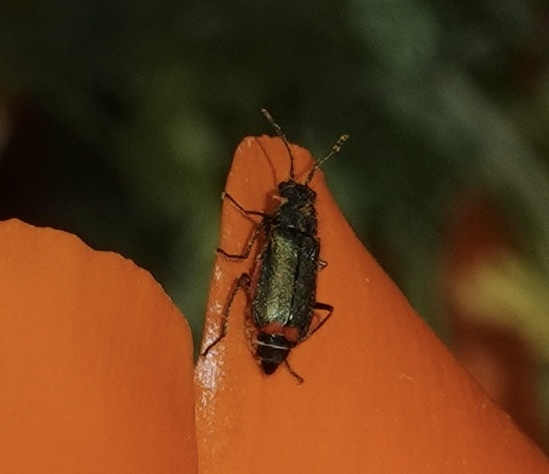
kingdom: Animalia
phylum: Arthropoda
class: Insecta
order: Coleoptera
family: Melyridae
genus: Malachius
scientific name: Malachius bipustulatus
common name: Malachite beetle
